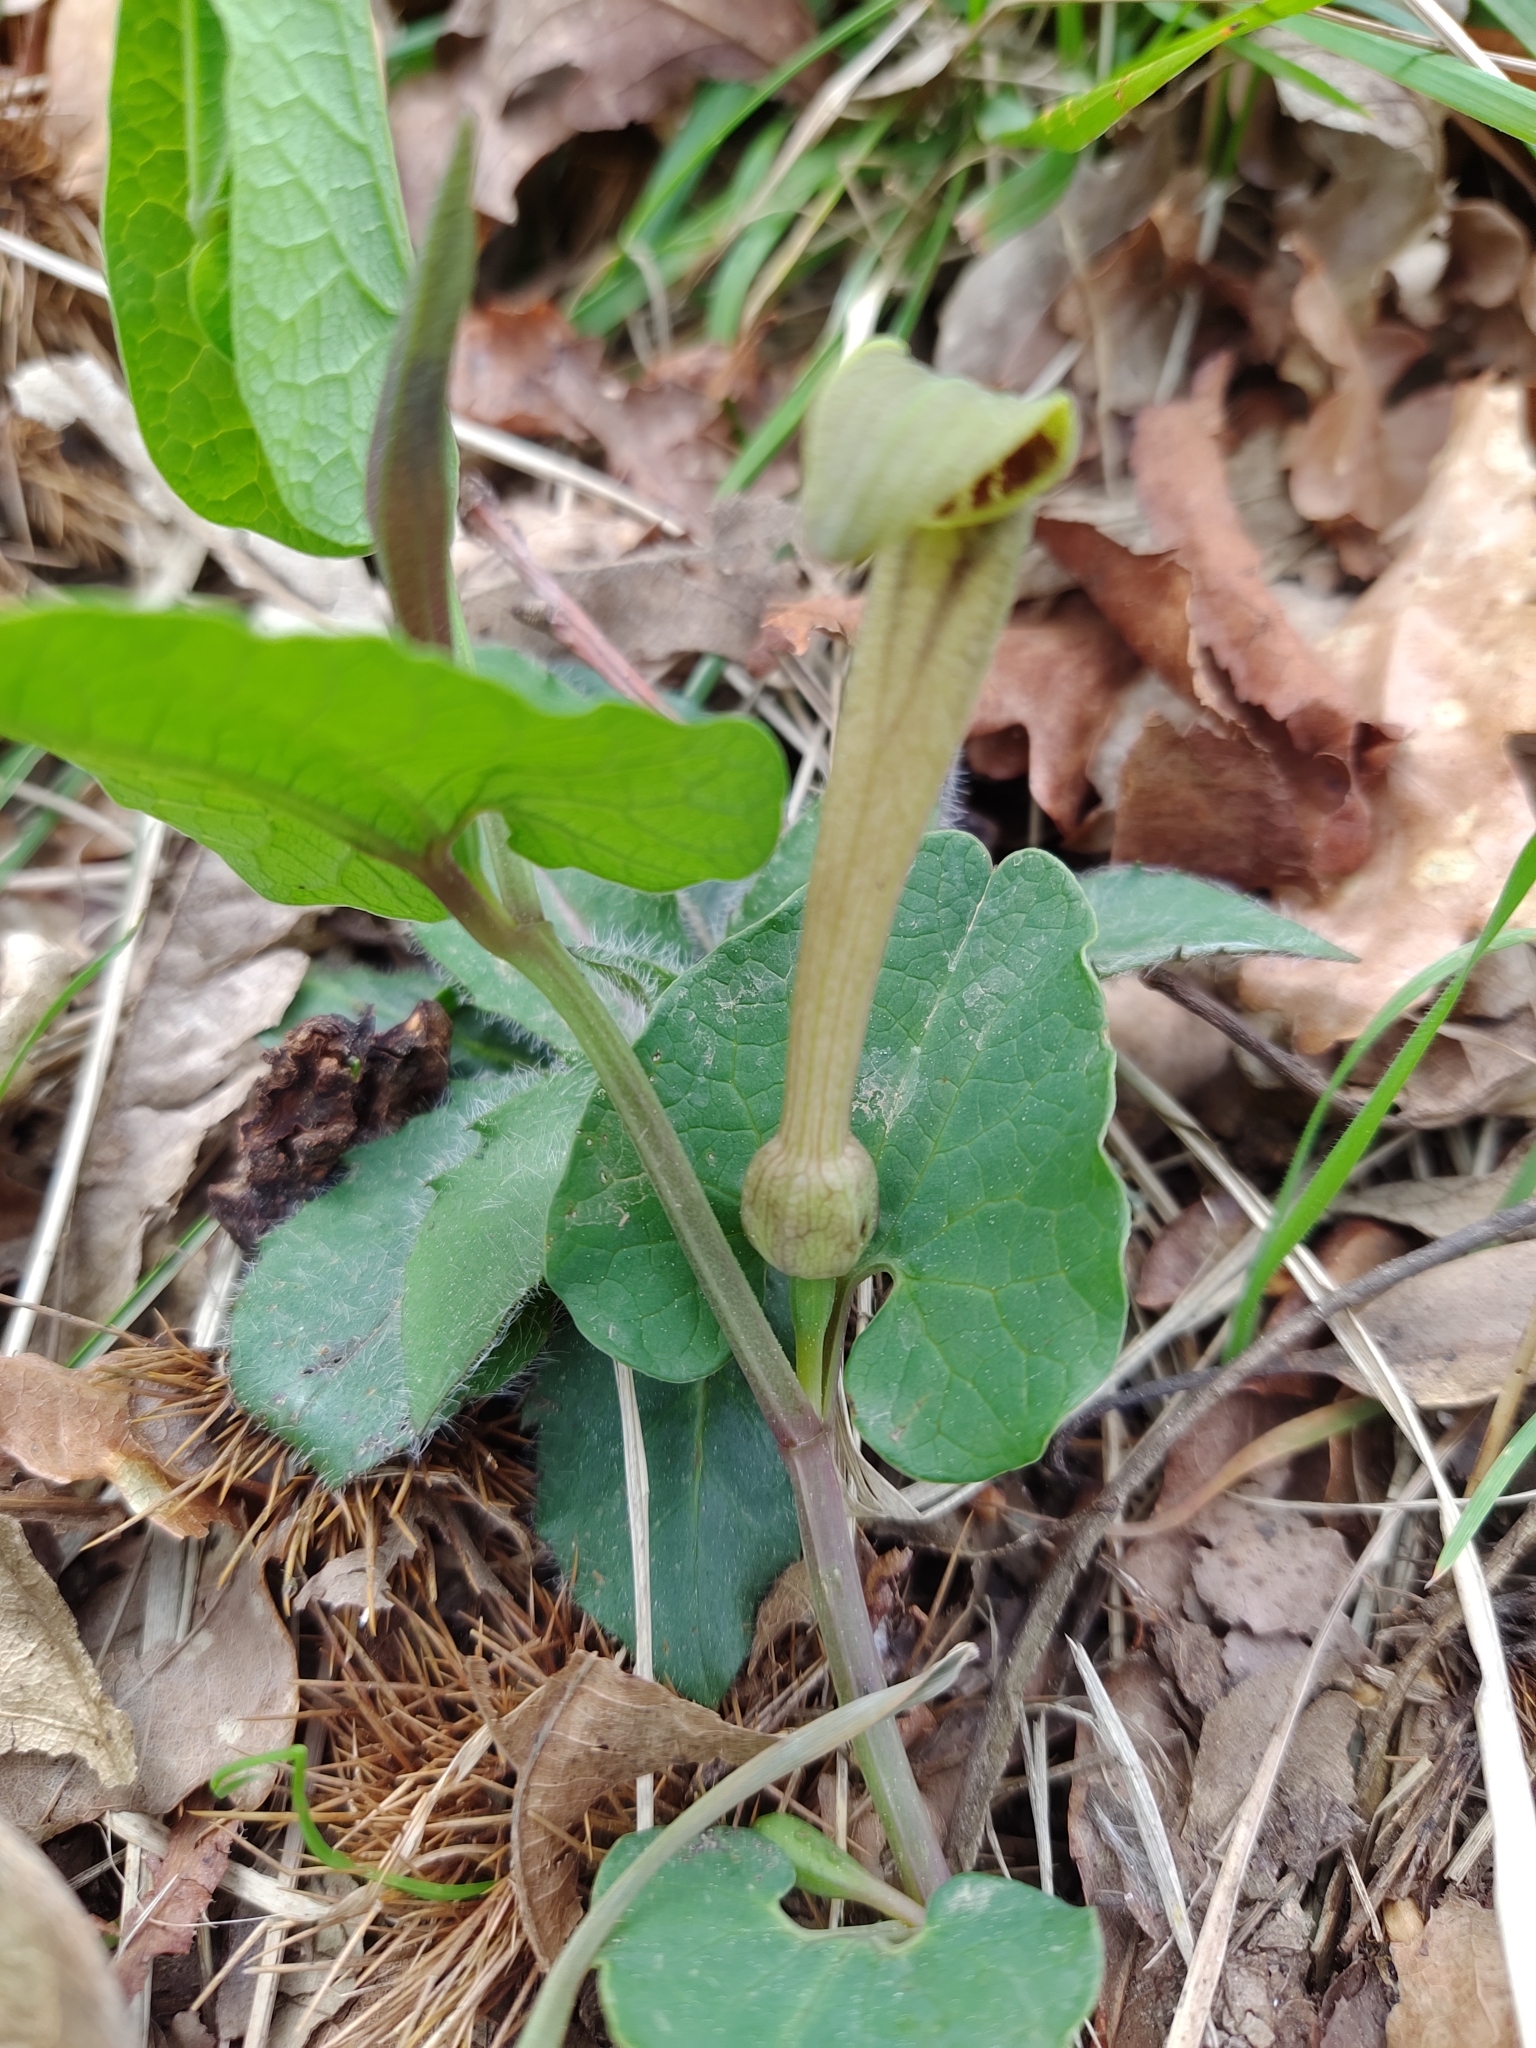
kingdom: Plantae
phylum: Tracheophyta
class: Magnoliopsida
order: Piperales
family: Aristolochiaceae
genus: Aristolochia
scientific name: Aristolochia paucinervis
